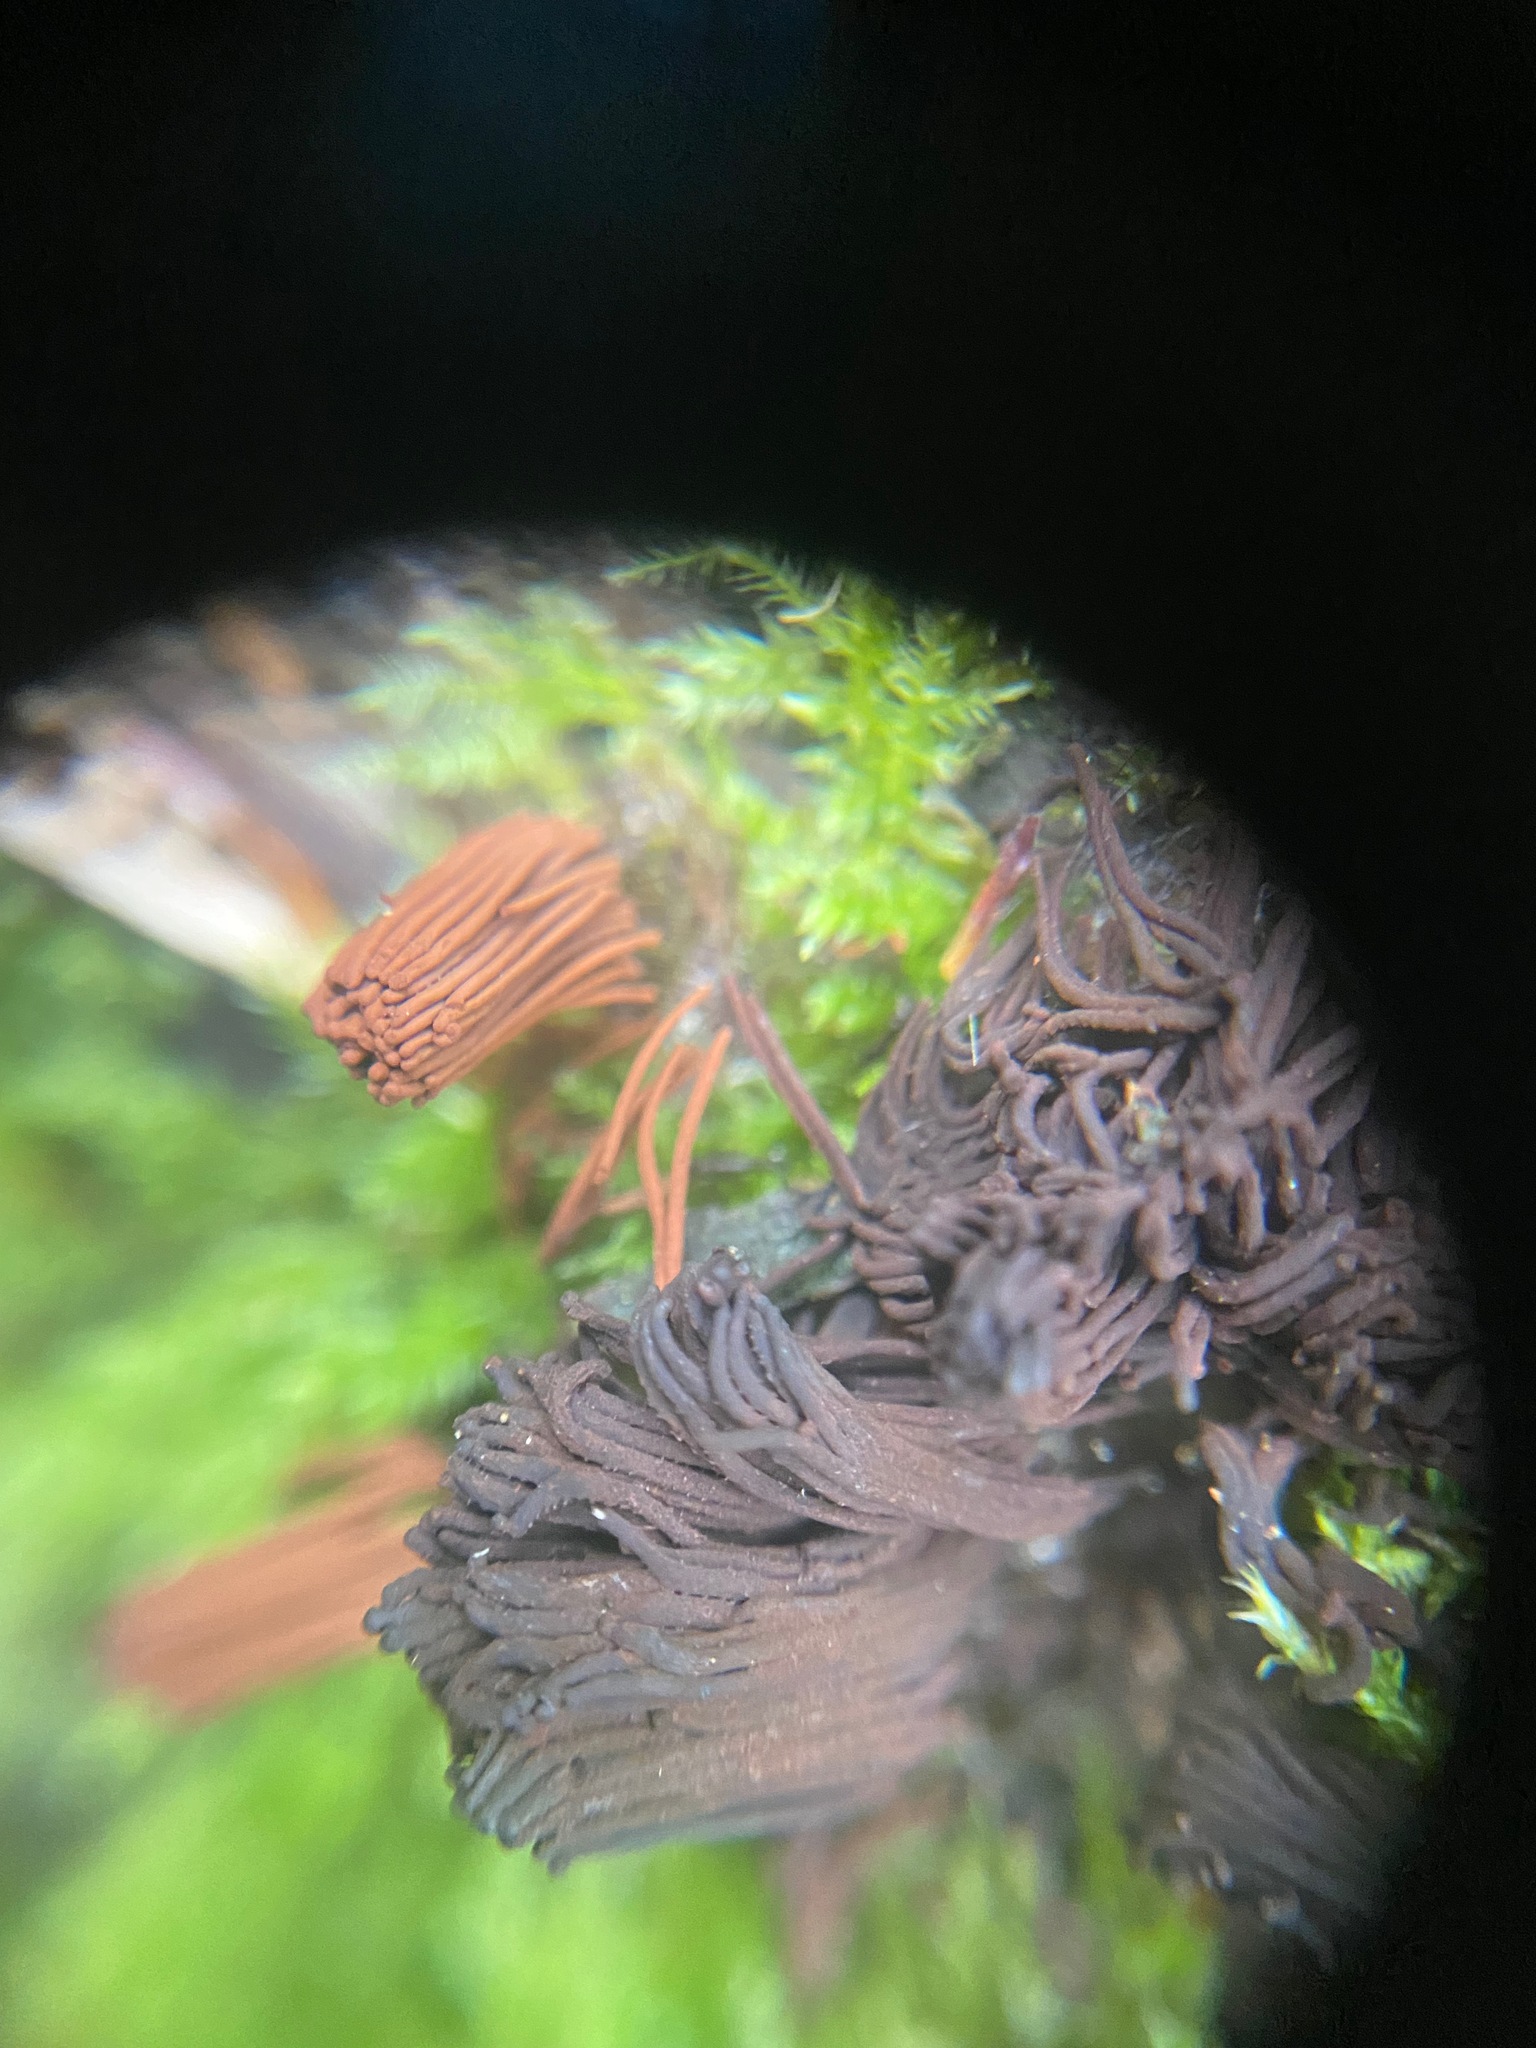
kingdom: Protozoa
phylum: Mycetozoa
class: Myxomycetes
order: Stemonitidales
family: Stemonitidaceae
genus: Stemonitis
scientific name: Stemonitis splendens
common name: Chocolate tube slime
